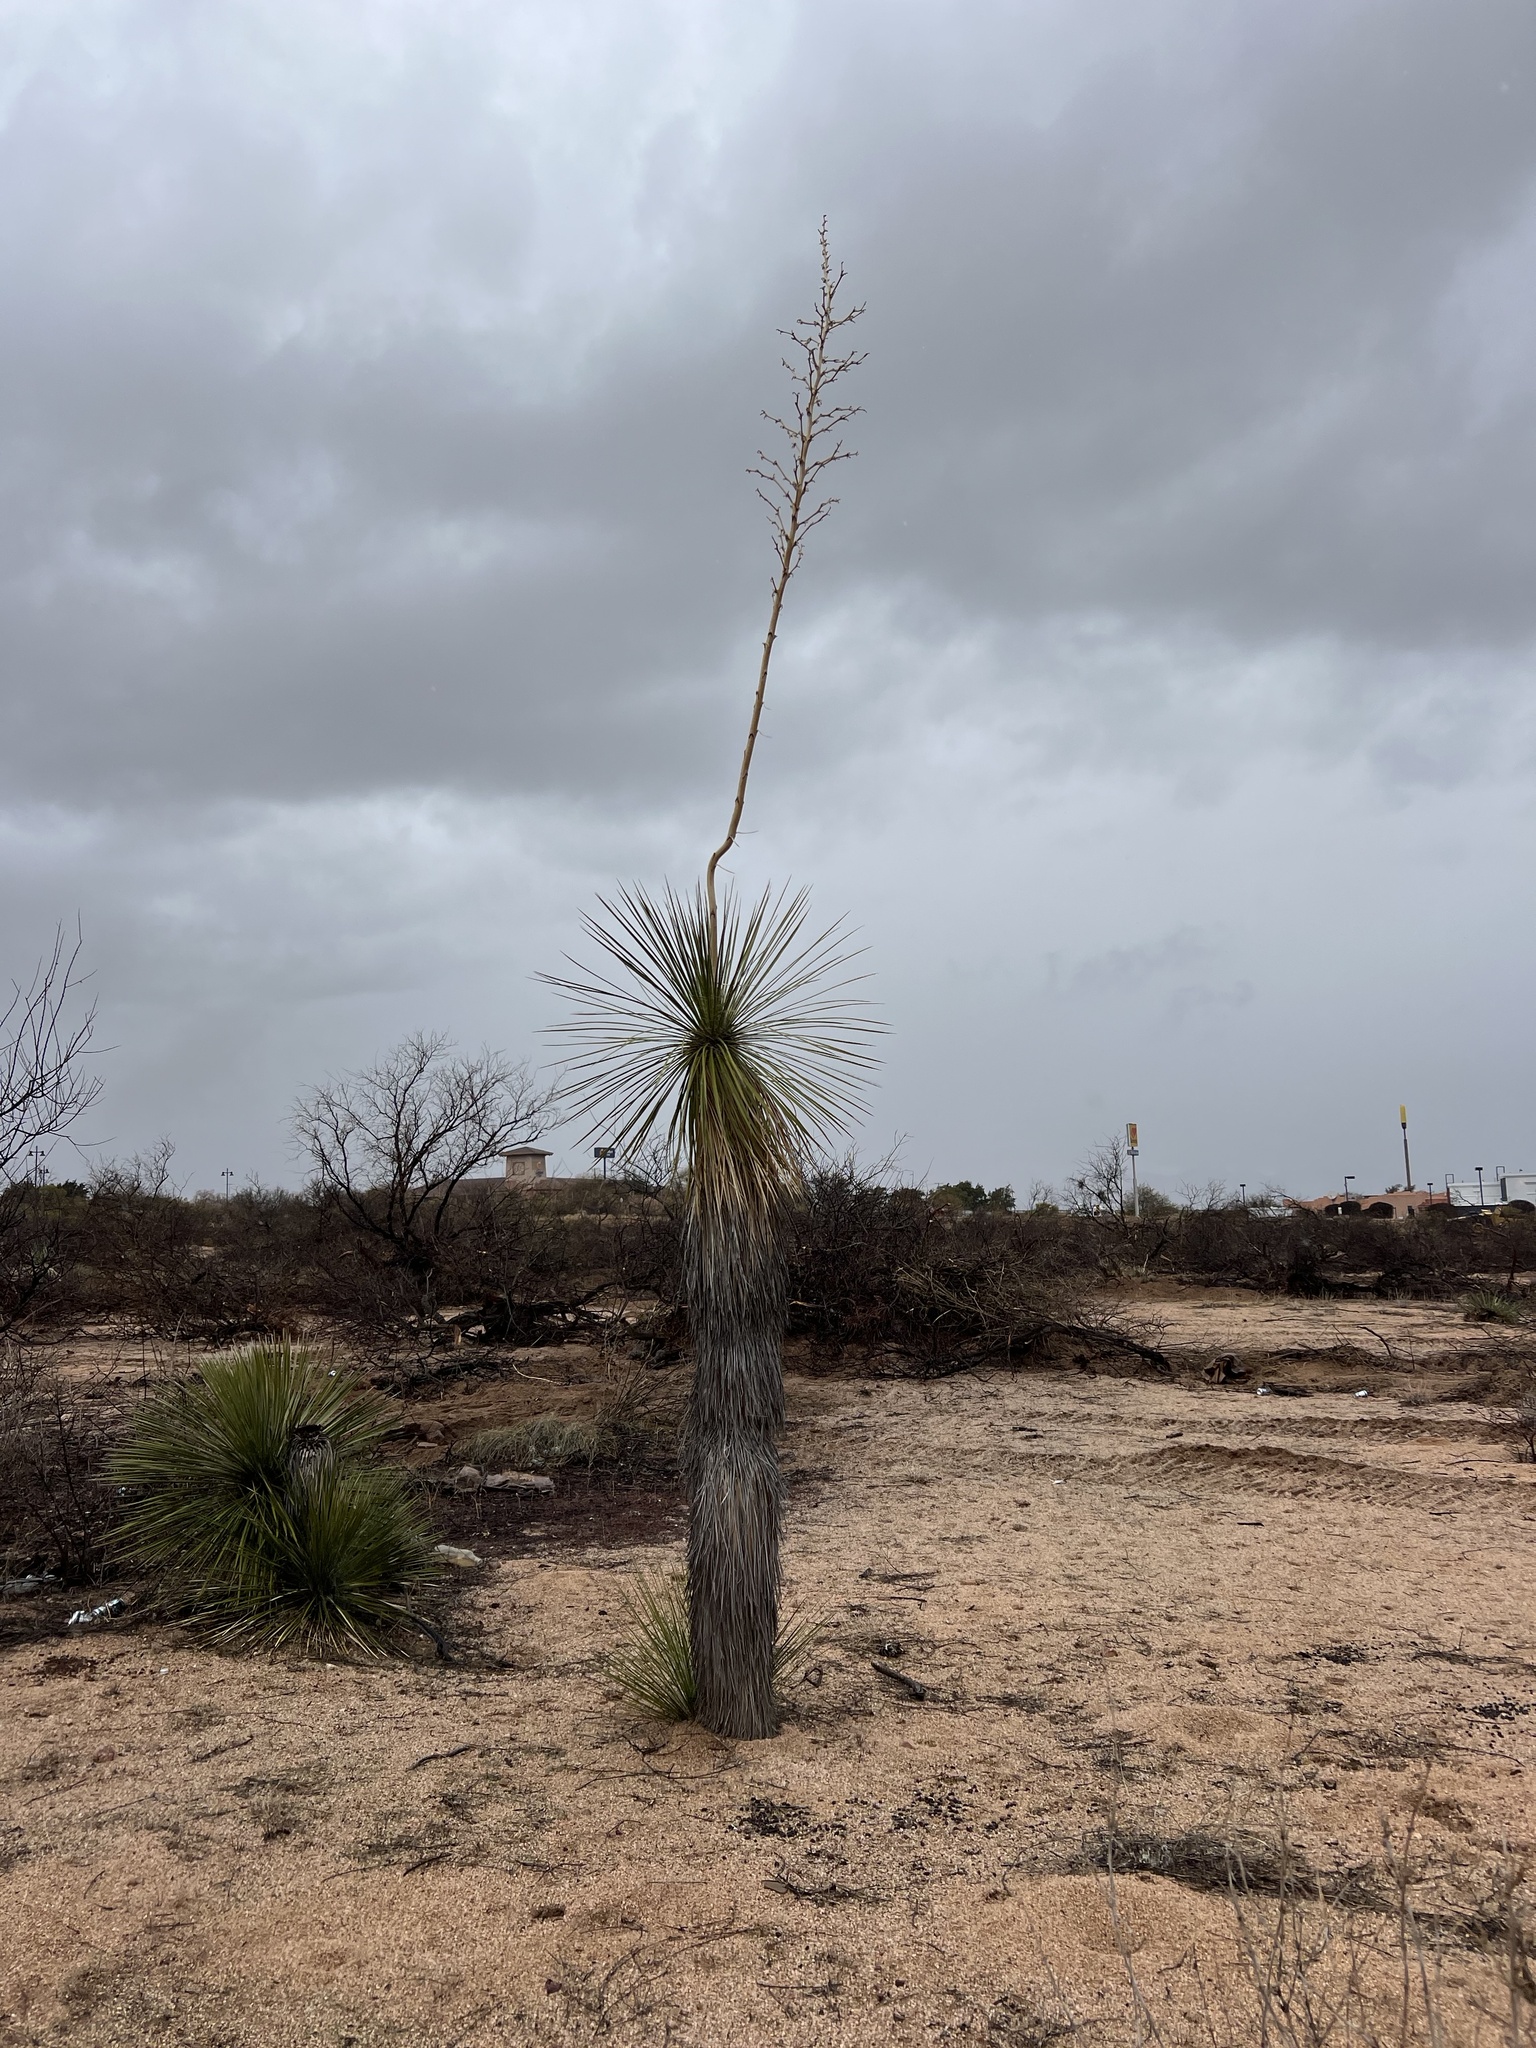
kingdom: Plantae
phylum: Tracheophyta
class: Liliopsida
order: Asparagales
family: Asparagaceae
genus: Yucca
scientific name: Yucca elata
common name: Palmella
